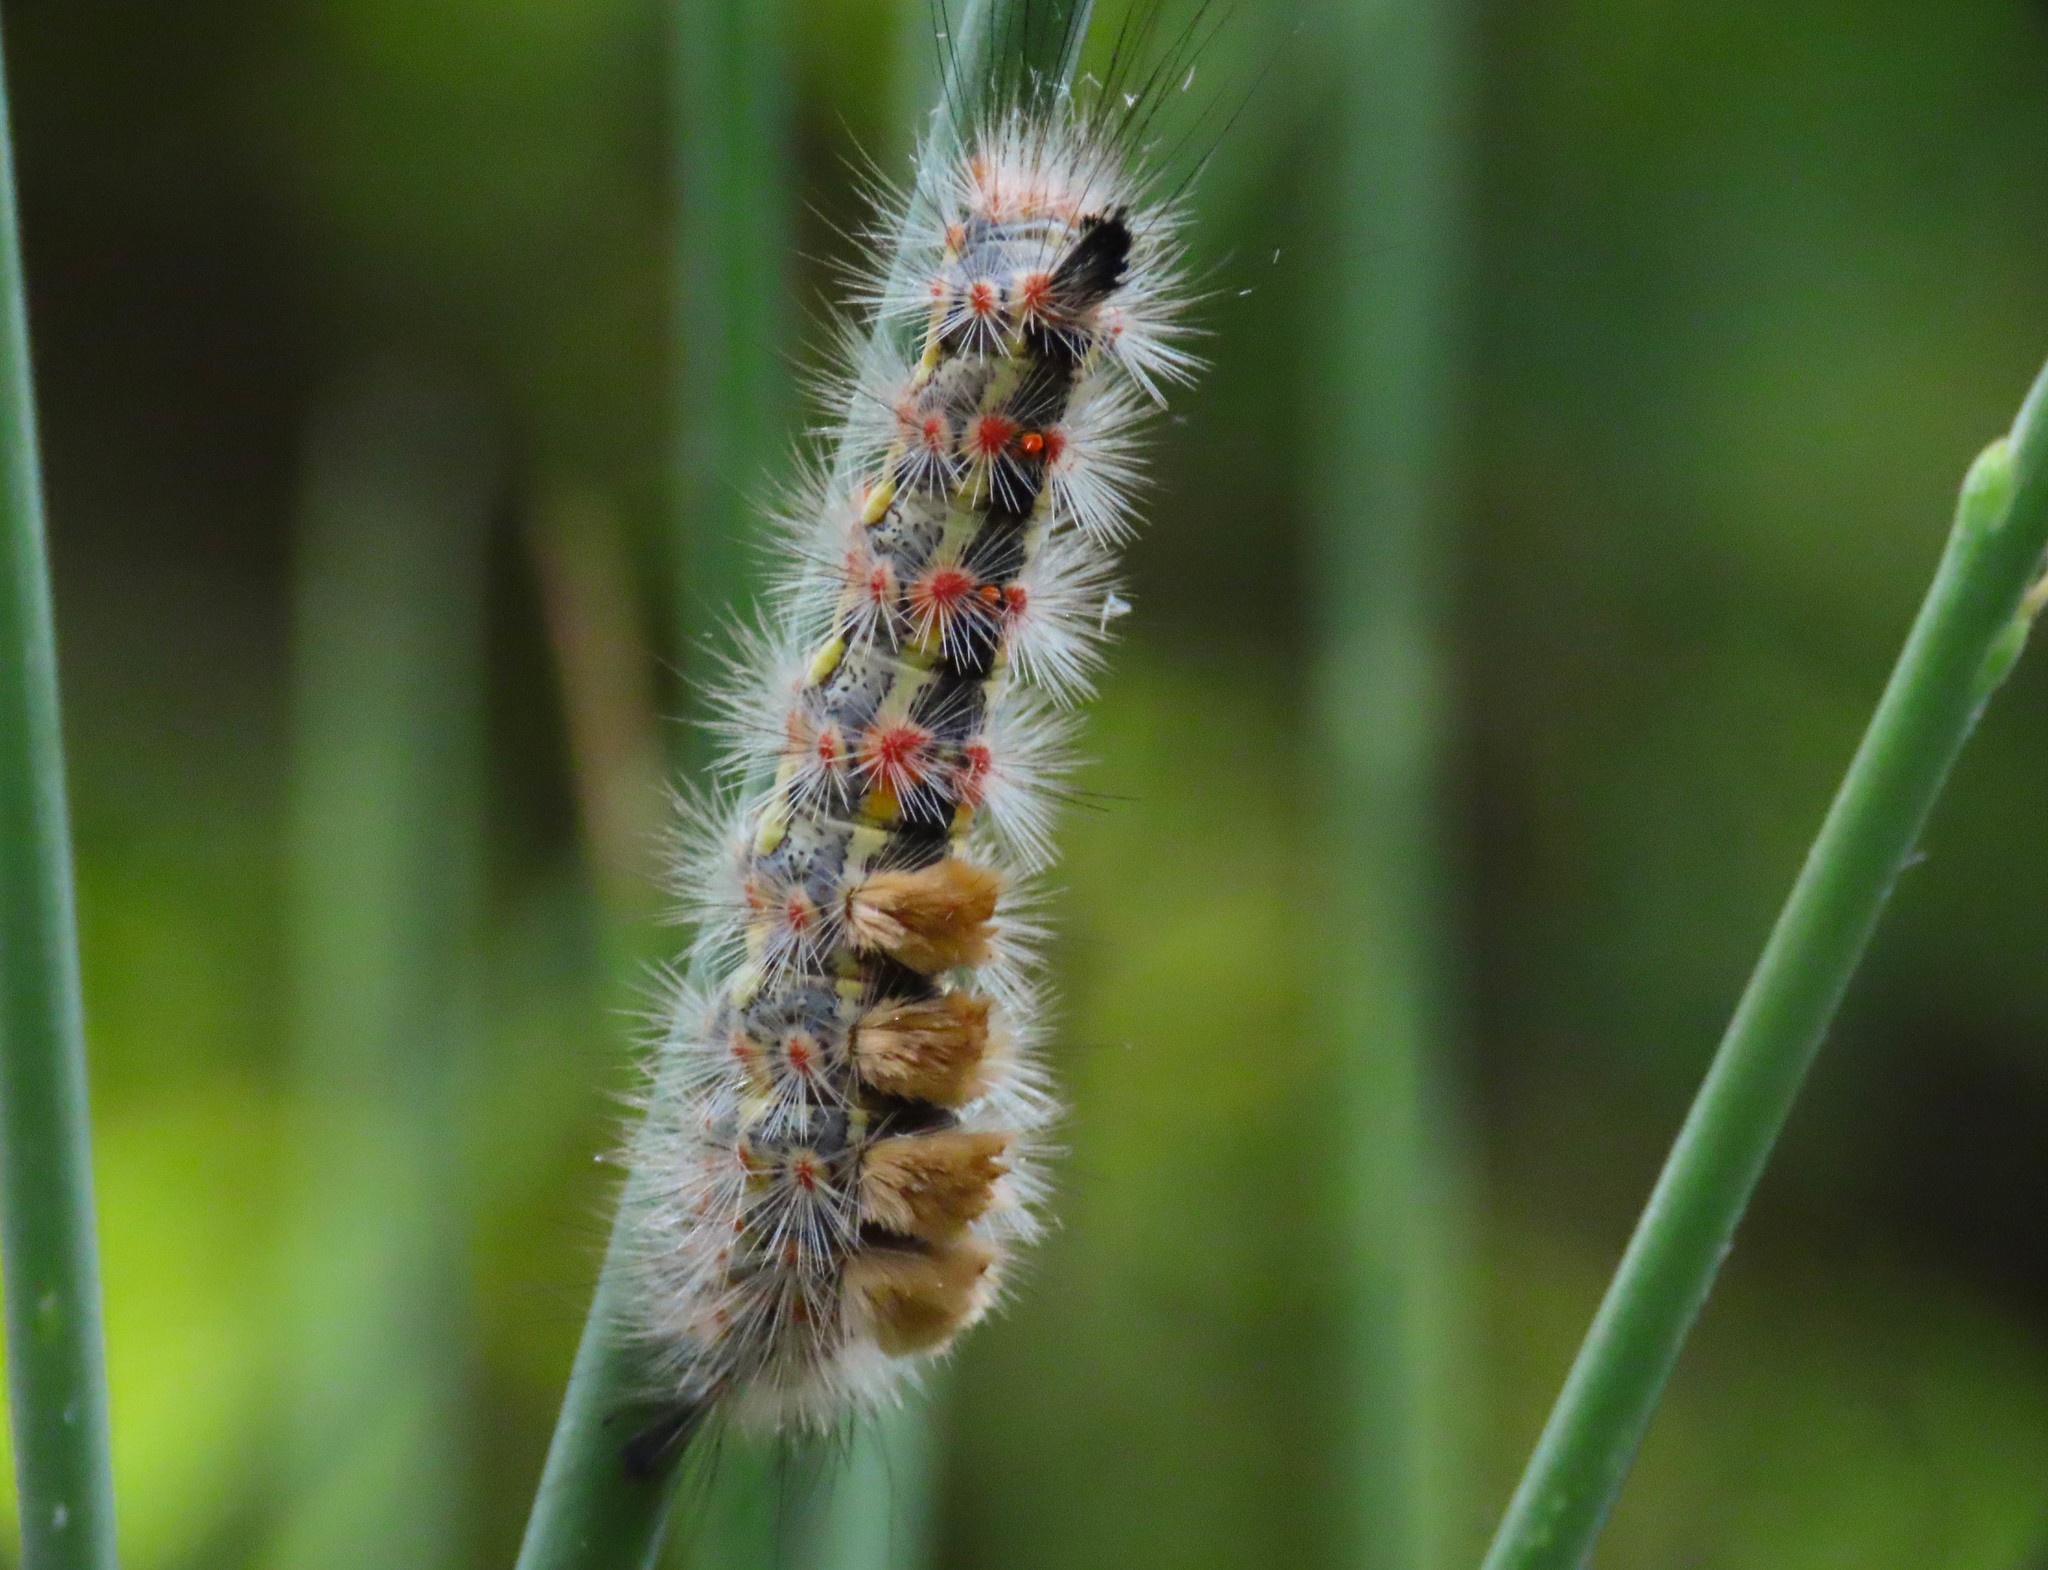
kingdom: Animalia
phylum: Arthropoda
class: Insecta
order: Lepidoptera
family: Erebidae
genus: Orgyia
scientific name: Orgyia trigotephras
